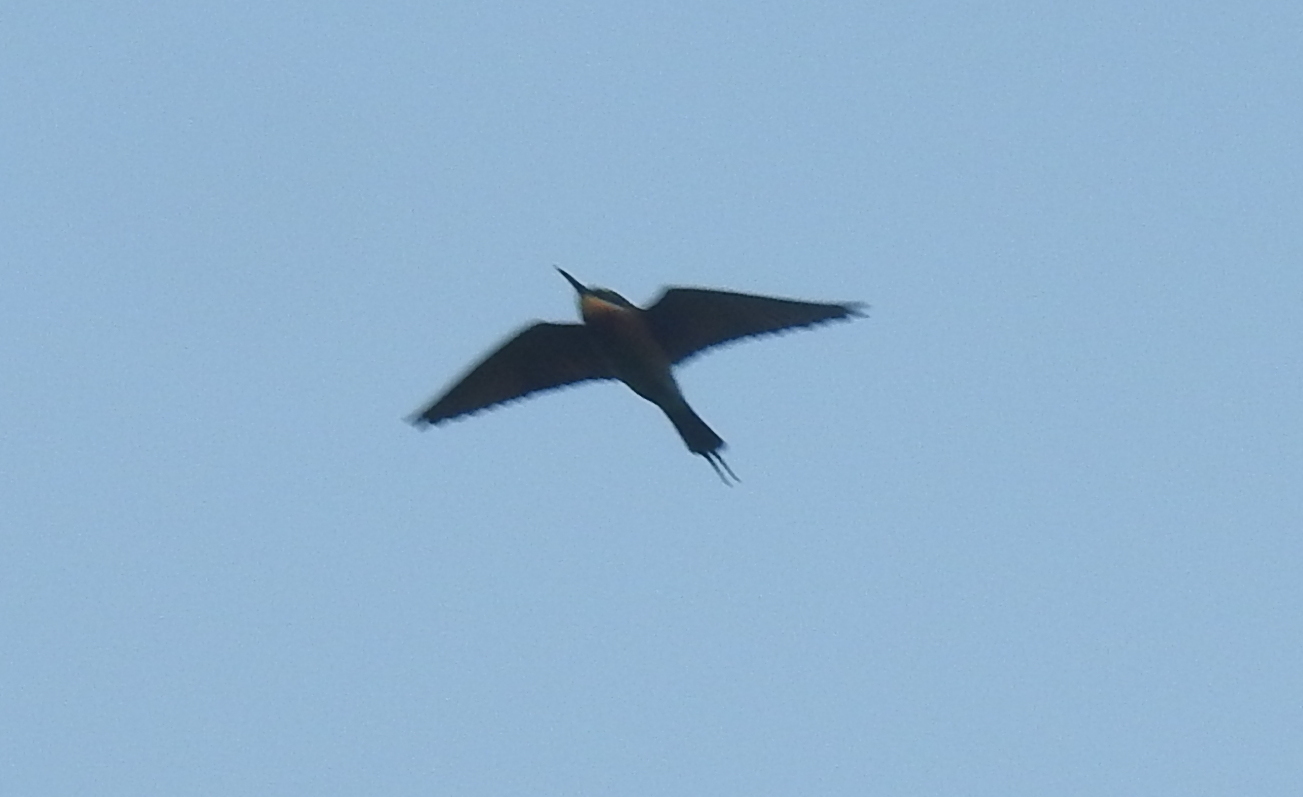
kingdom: Animalia
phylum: Chordata
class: Aves
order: Coraciiformes
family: Meropidae
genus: Merops
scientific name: Merops philippinus
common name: Blue-tailed bee-eater
